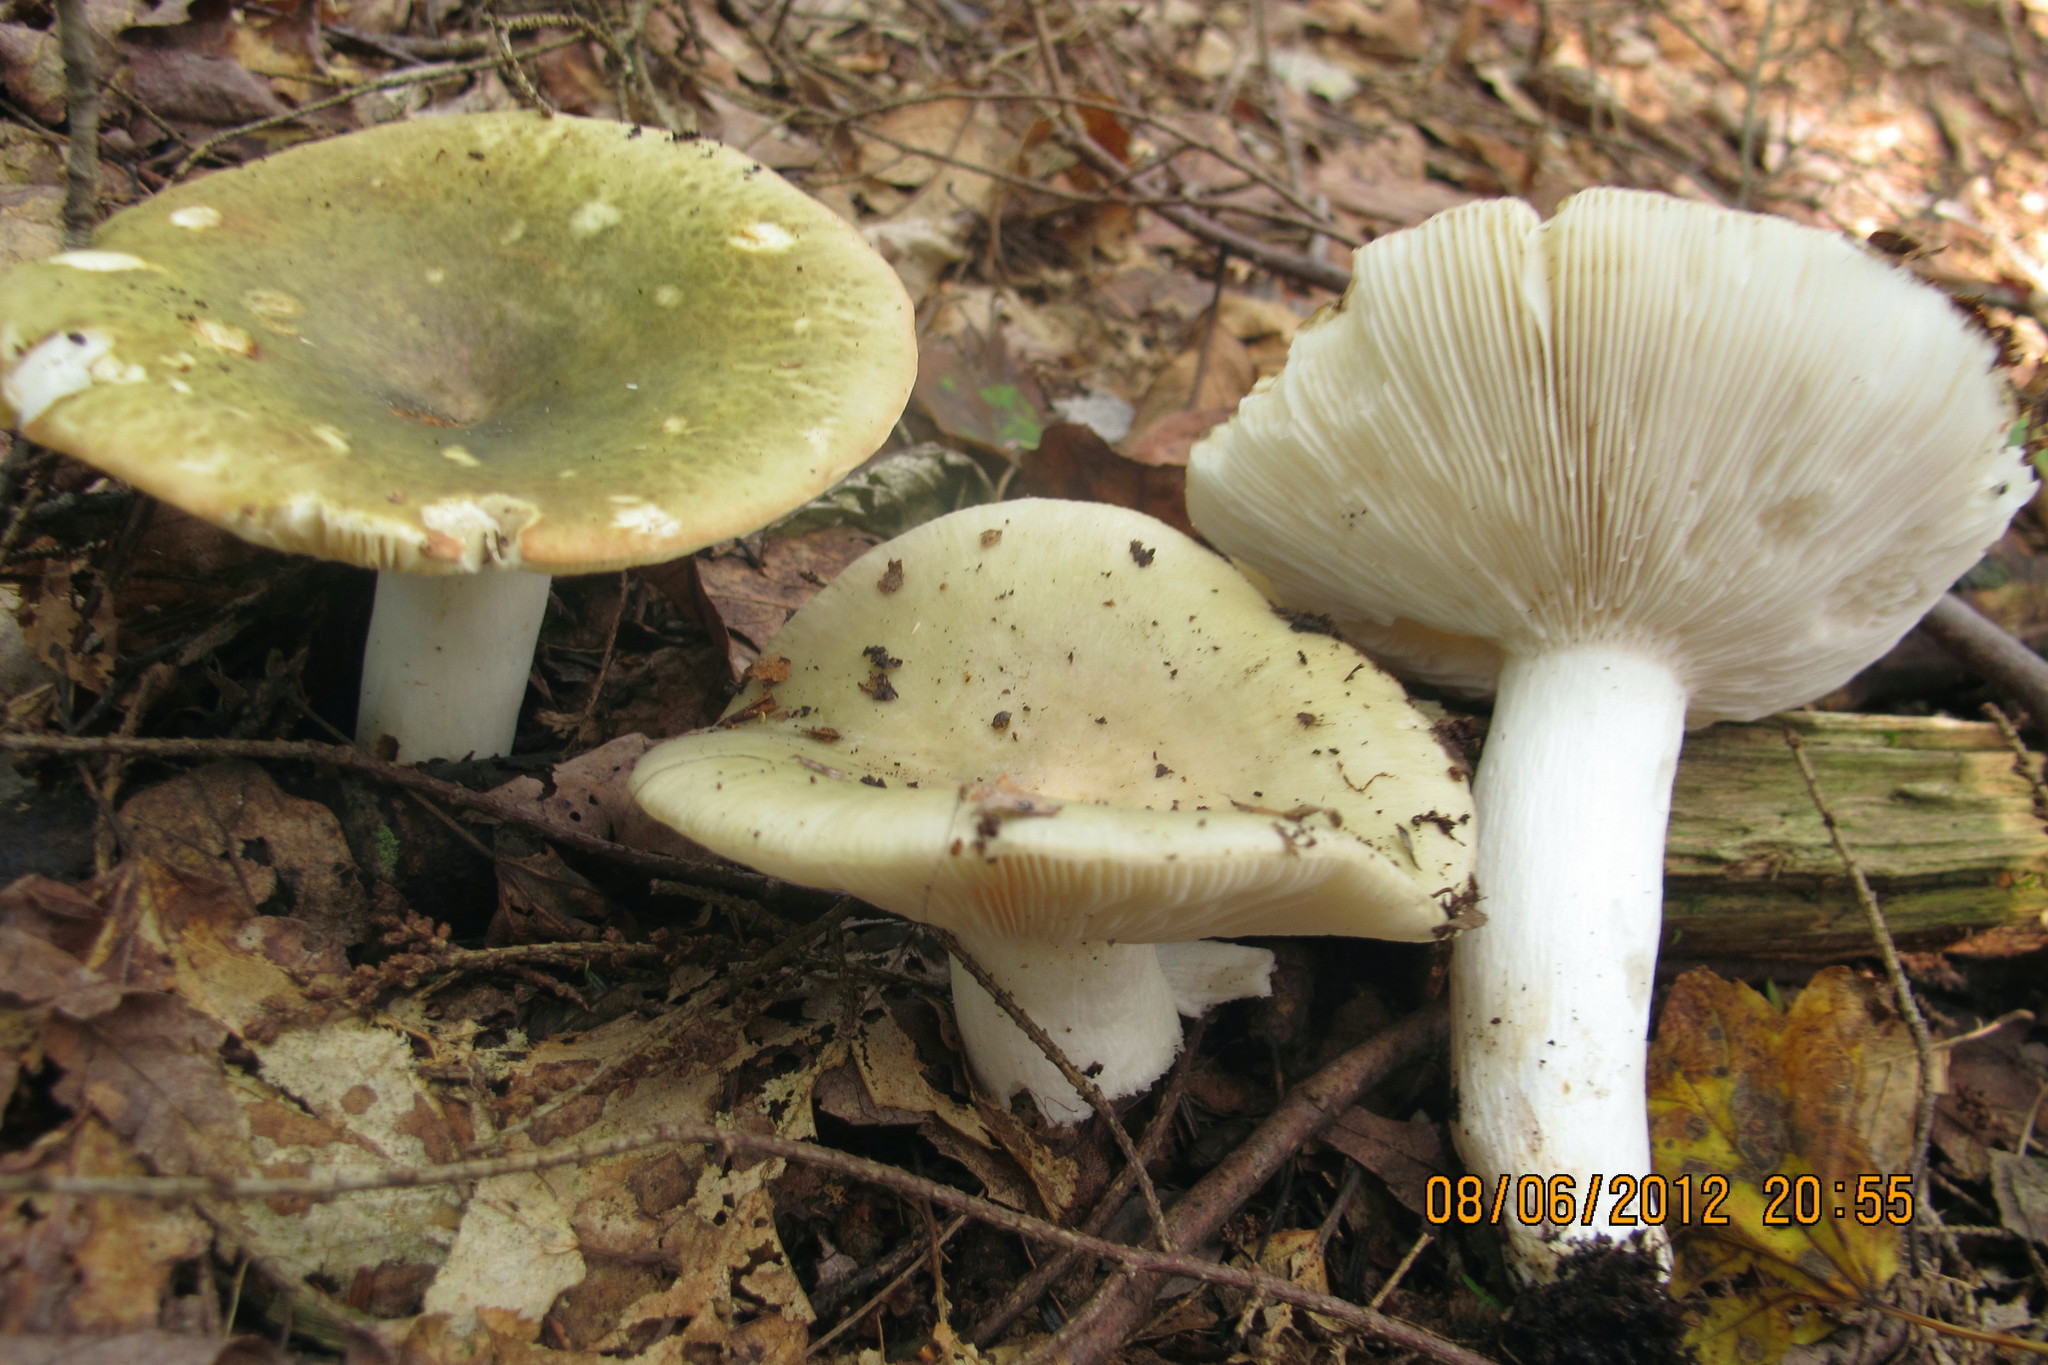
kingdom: Fungi
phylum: Basidiomycota
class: Agaricomycetes
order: Russulales
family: Russulaceae
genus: Russula
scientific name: Russula cyanoxantha
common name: Charcoal burner
